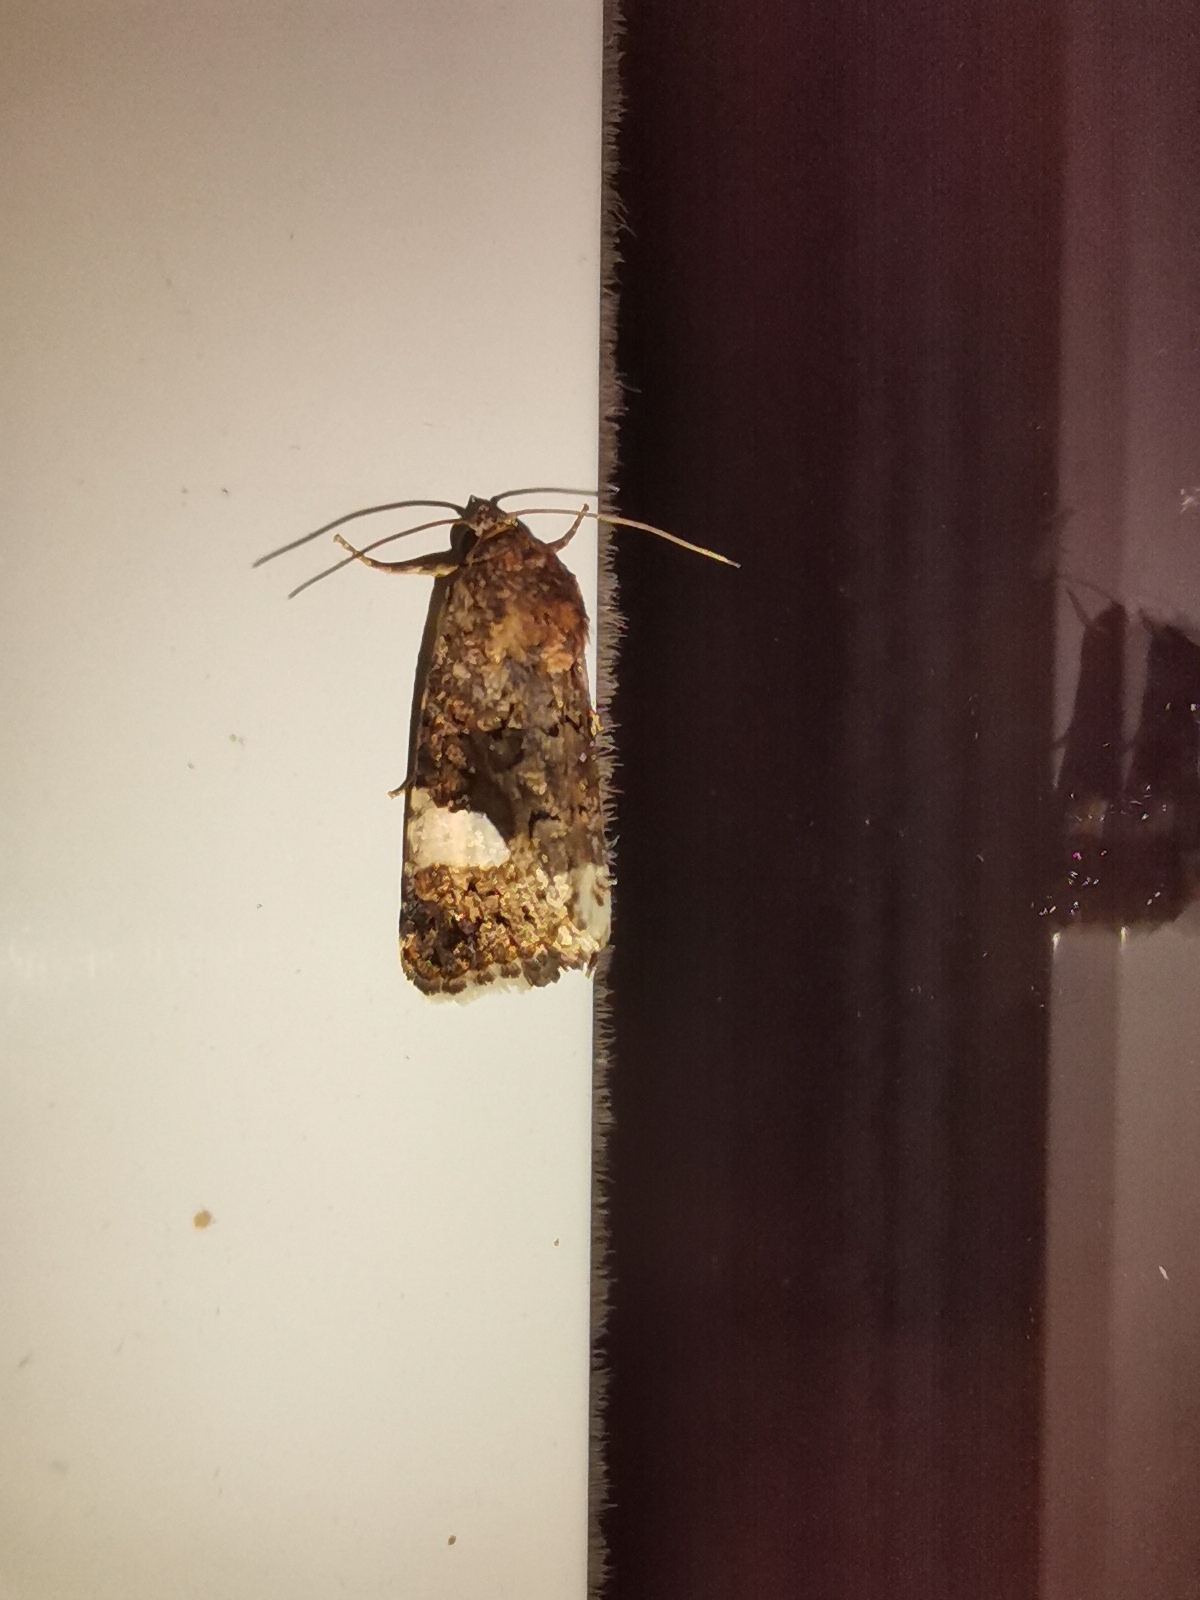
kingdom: Animalia
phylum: Arthropoda
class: Insecta
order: Lepidoptera
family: Erebidae
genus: Tyta
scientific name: Tyta luctuosa
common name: Four-spotted
